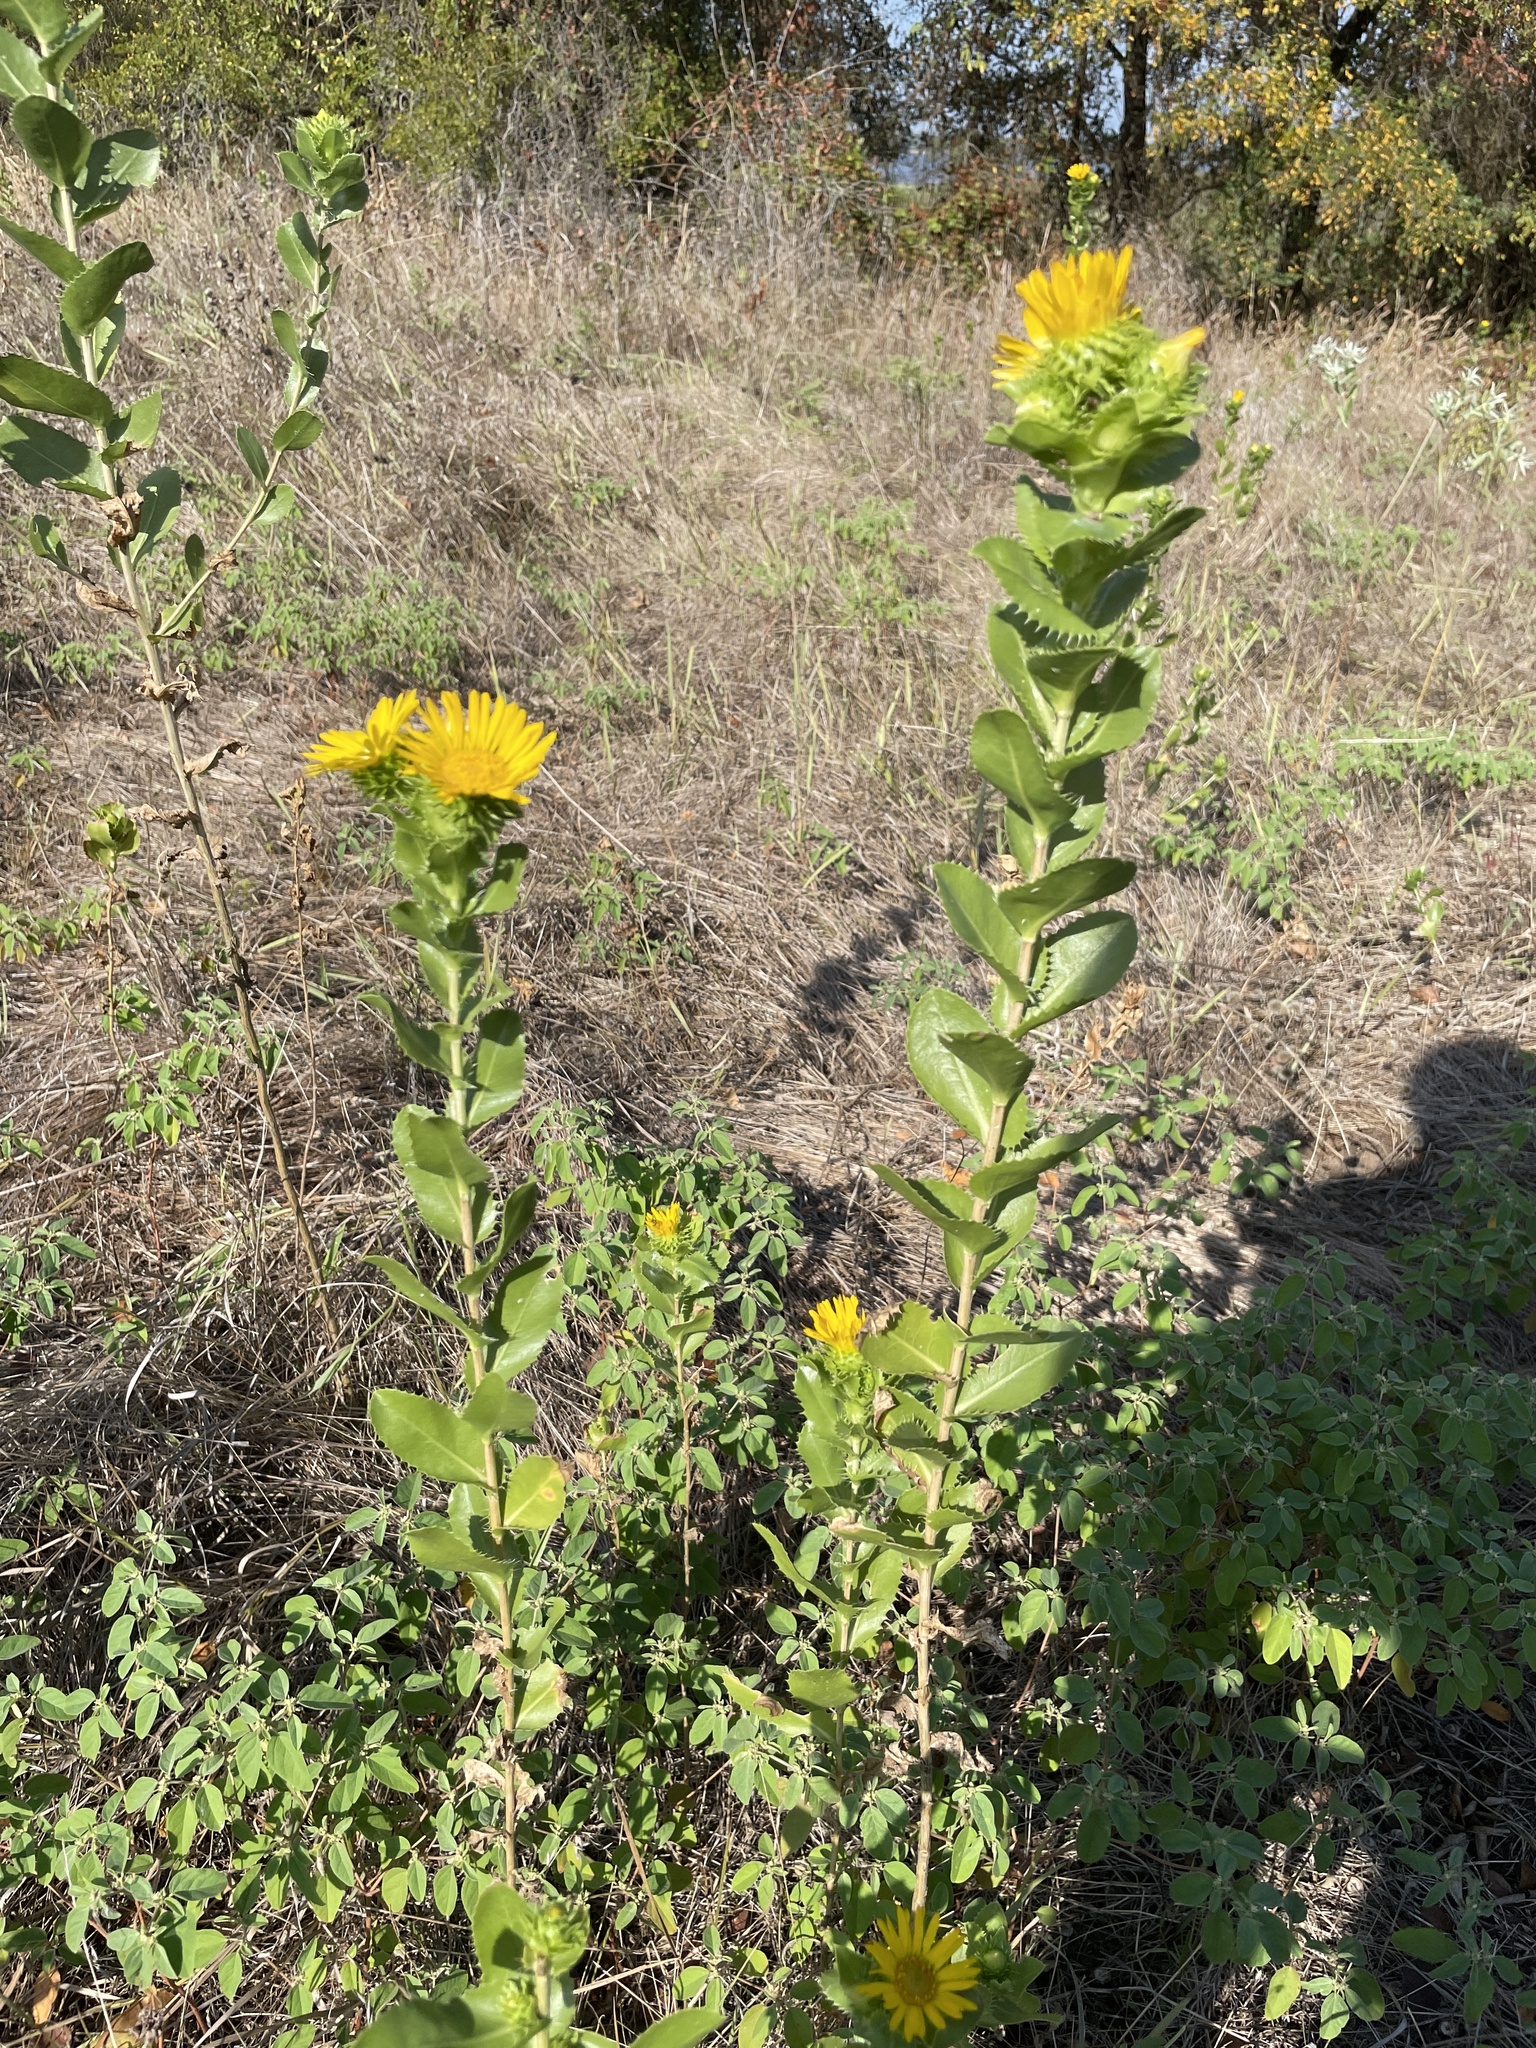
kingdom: Plantae
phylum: Tracheophyta
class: Magnoliopsida
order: Asterales
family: Asteraceae
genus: Grindelia
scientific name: Grindelia ciliata
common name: Goldenweed
